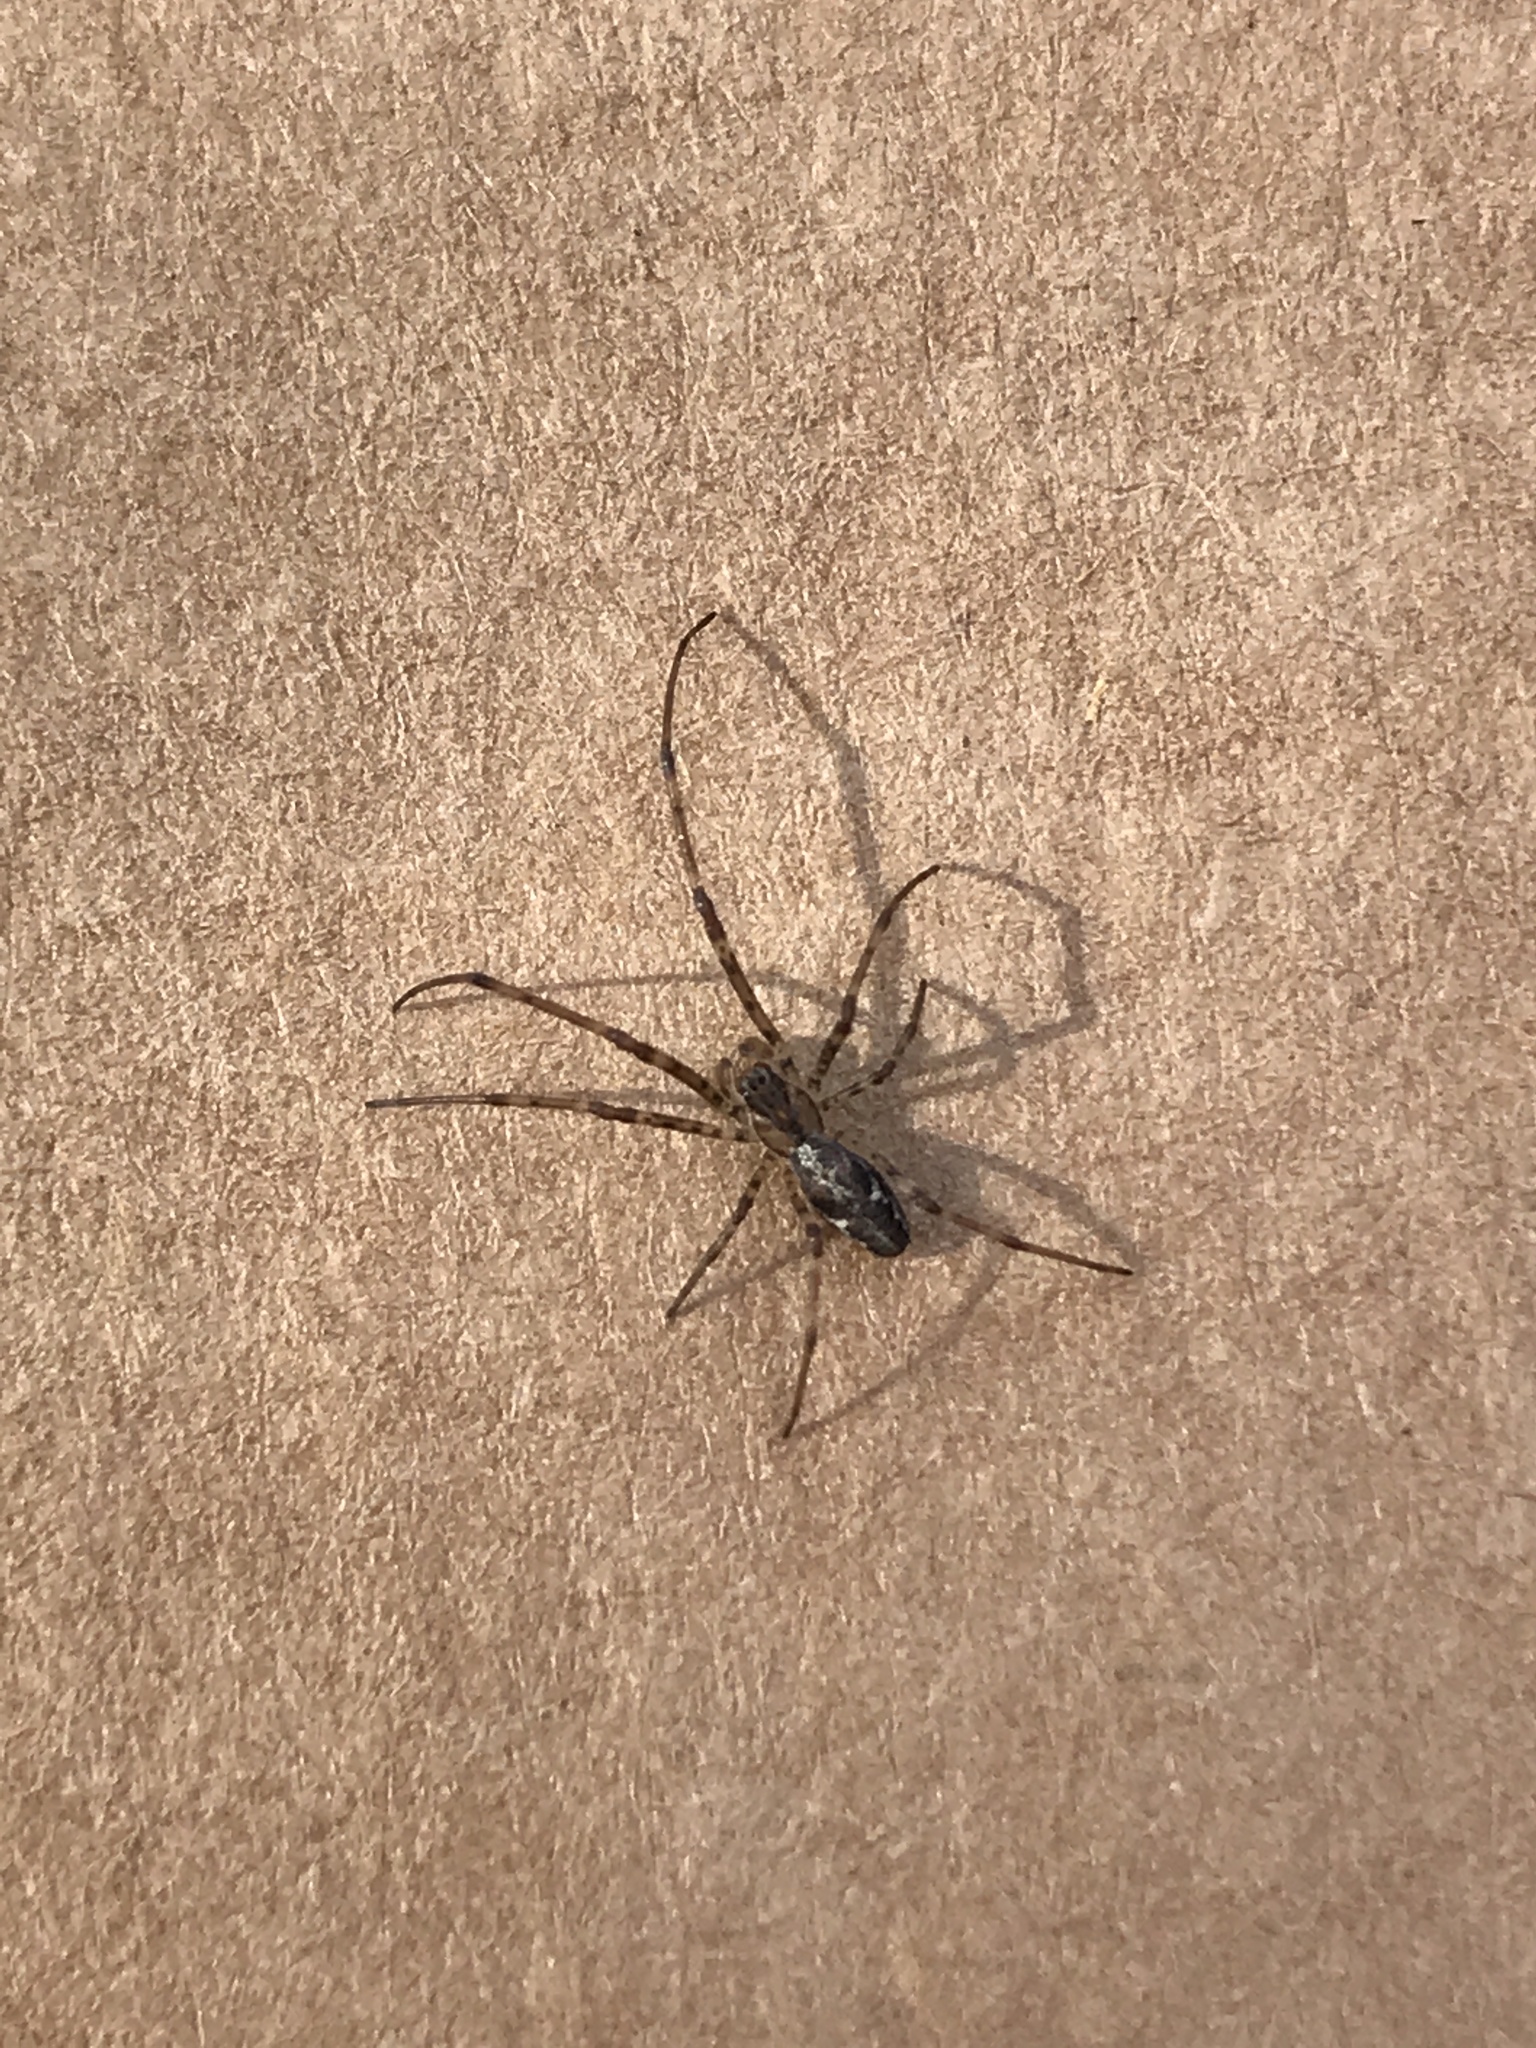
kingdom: Animalia
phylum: Arthropoda
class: Arachnida
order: Araneae
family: Tetragnathidae
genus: Tetragnatha
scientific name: Tetragnatha
